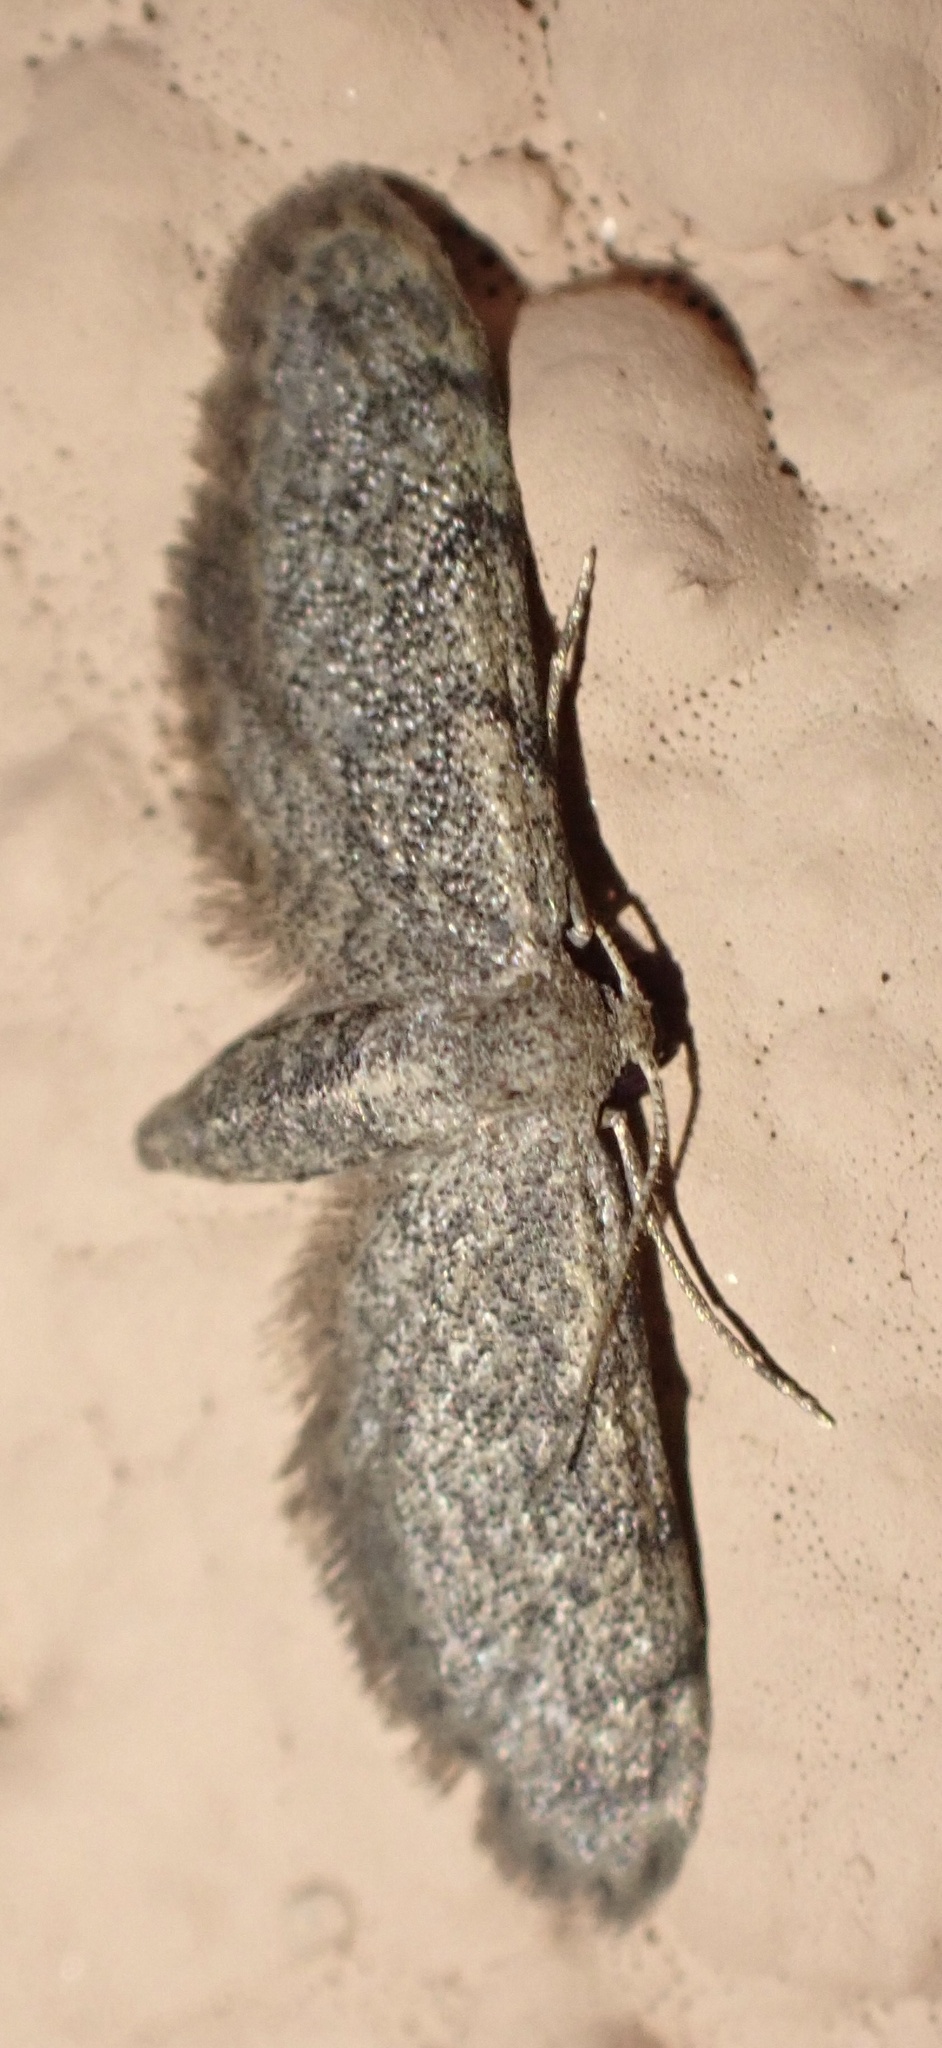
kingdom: Animalia
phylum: Arthropoda
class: Insecta
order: Lepidoptera
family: Geometridae
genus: Idaea
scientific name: Idaea deitanaria
